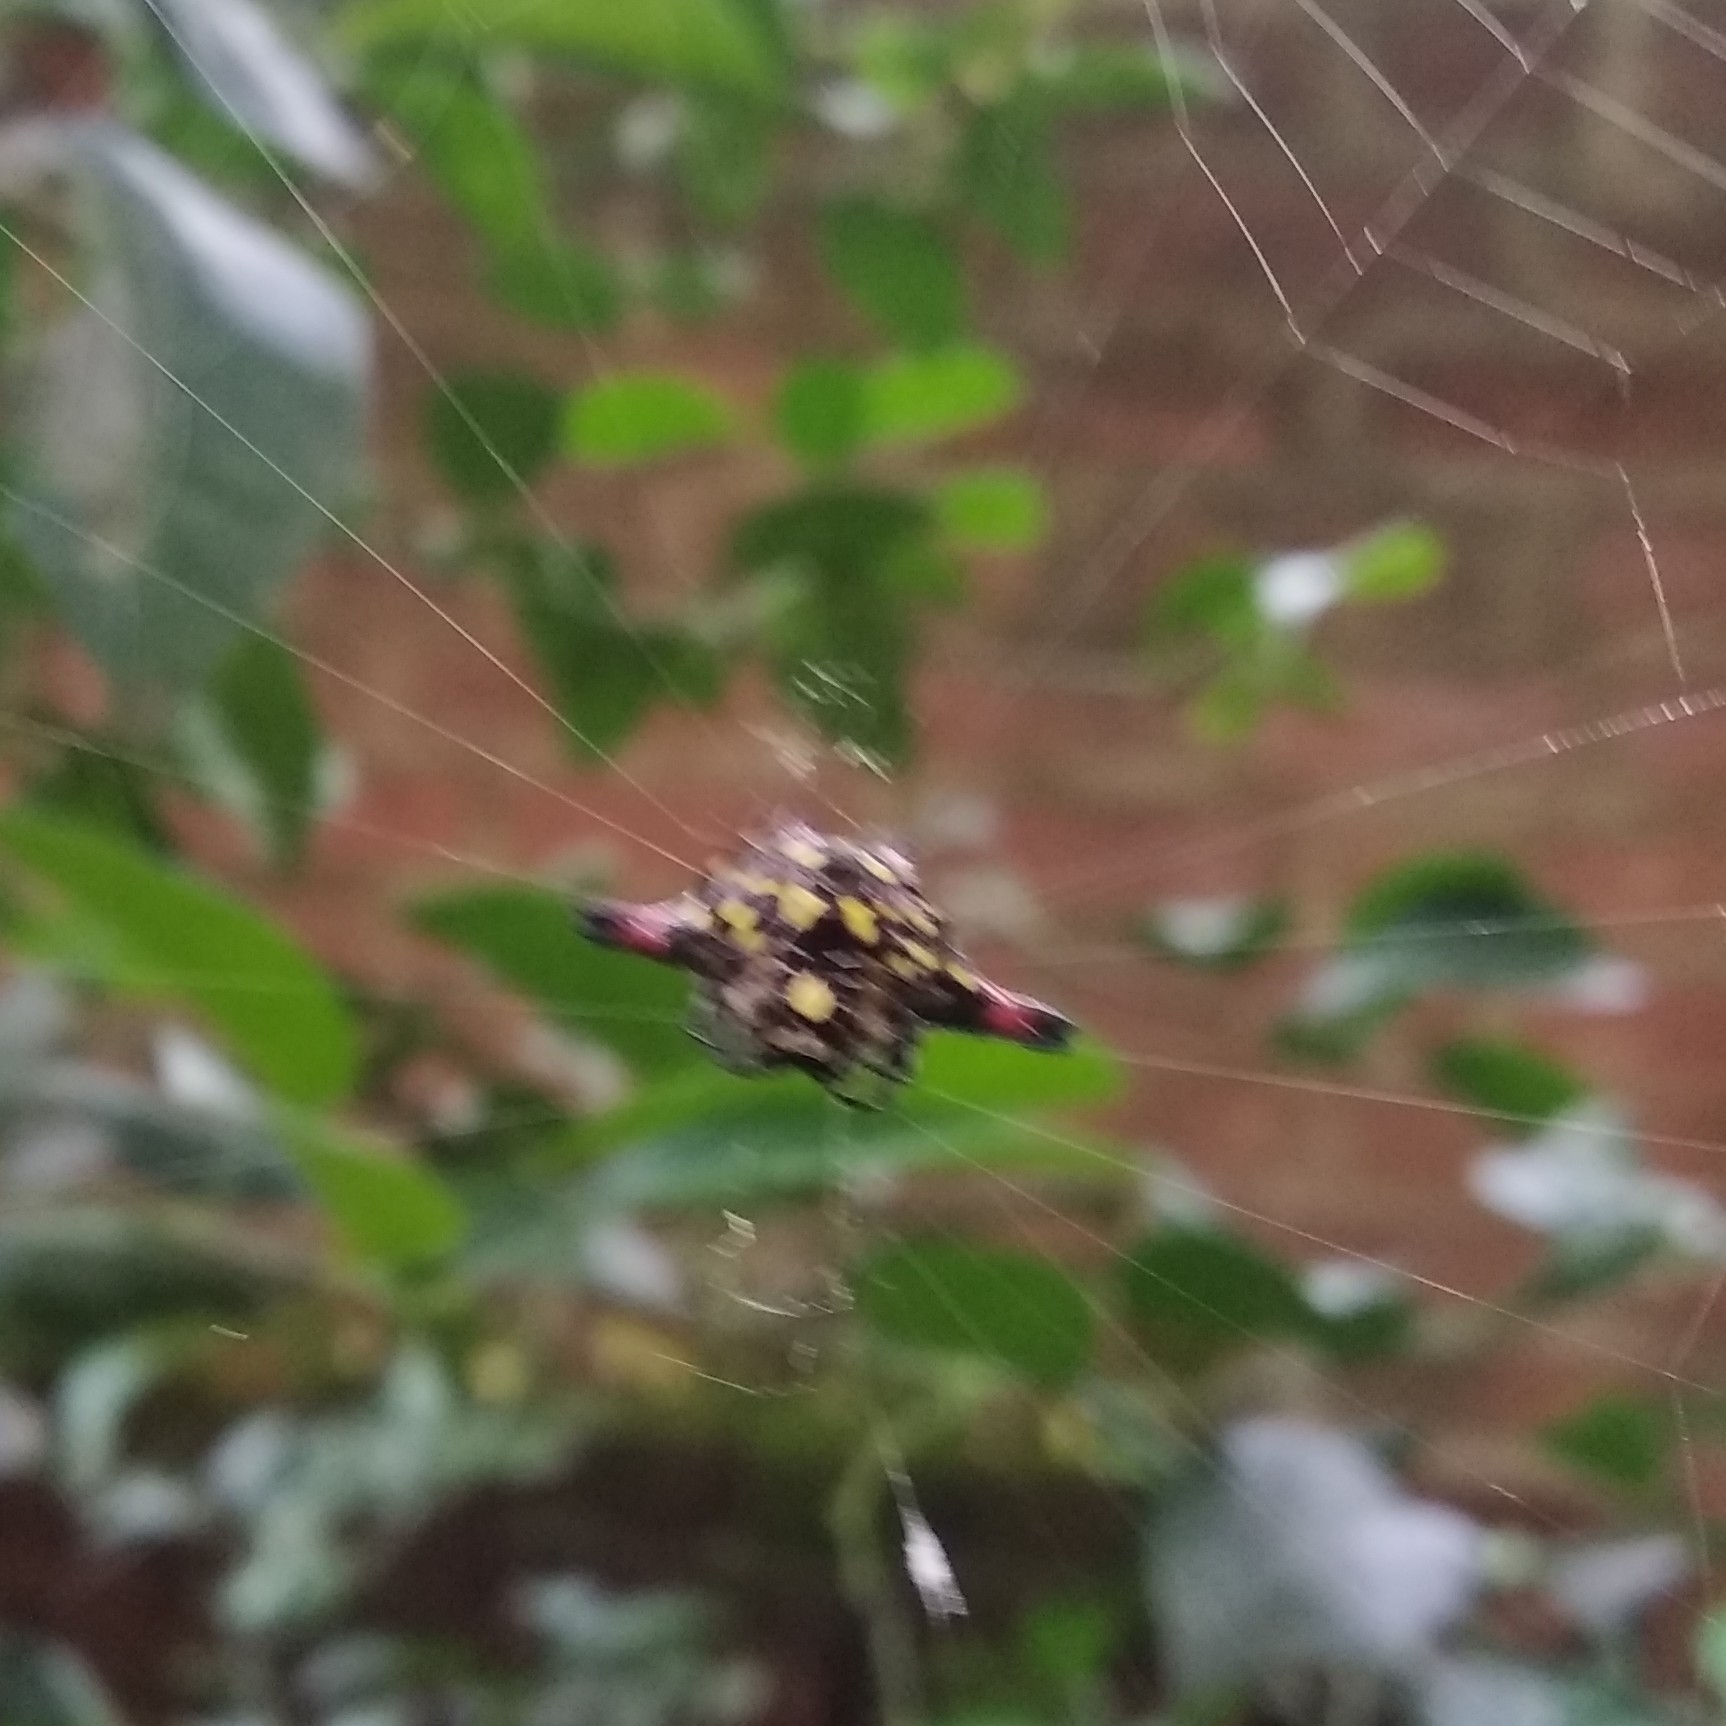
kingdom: Animalia
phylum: Arthropoda
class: Arachnida
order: Araneae
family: Araneidae
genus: Gasteracantha
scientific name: Gasteracantha geminata
